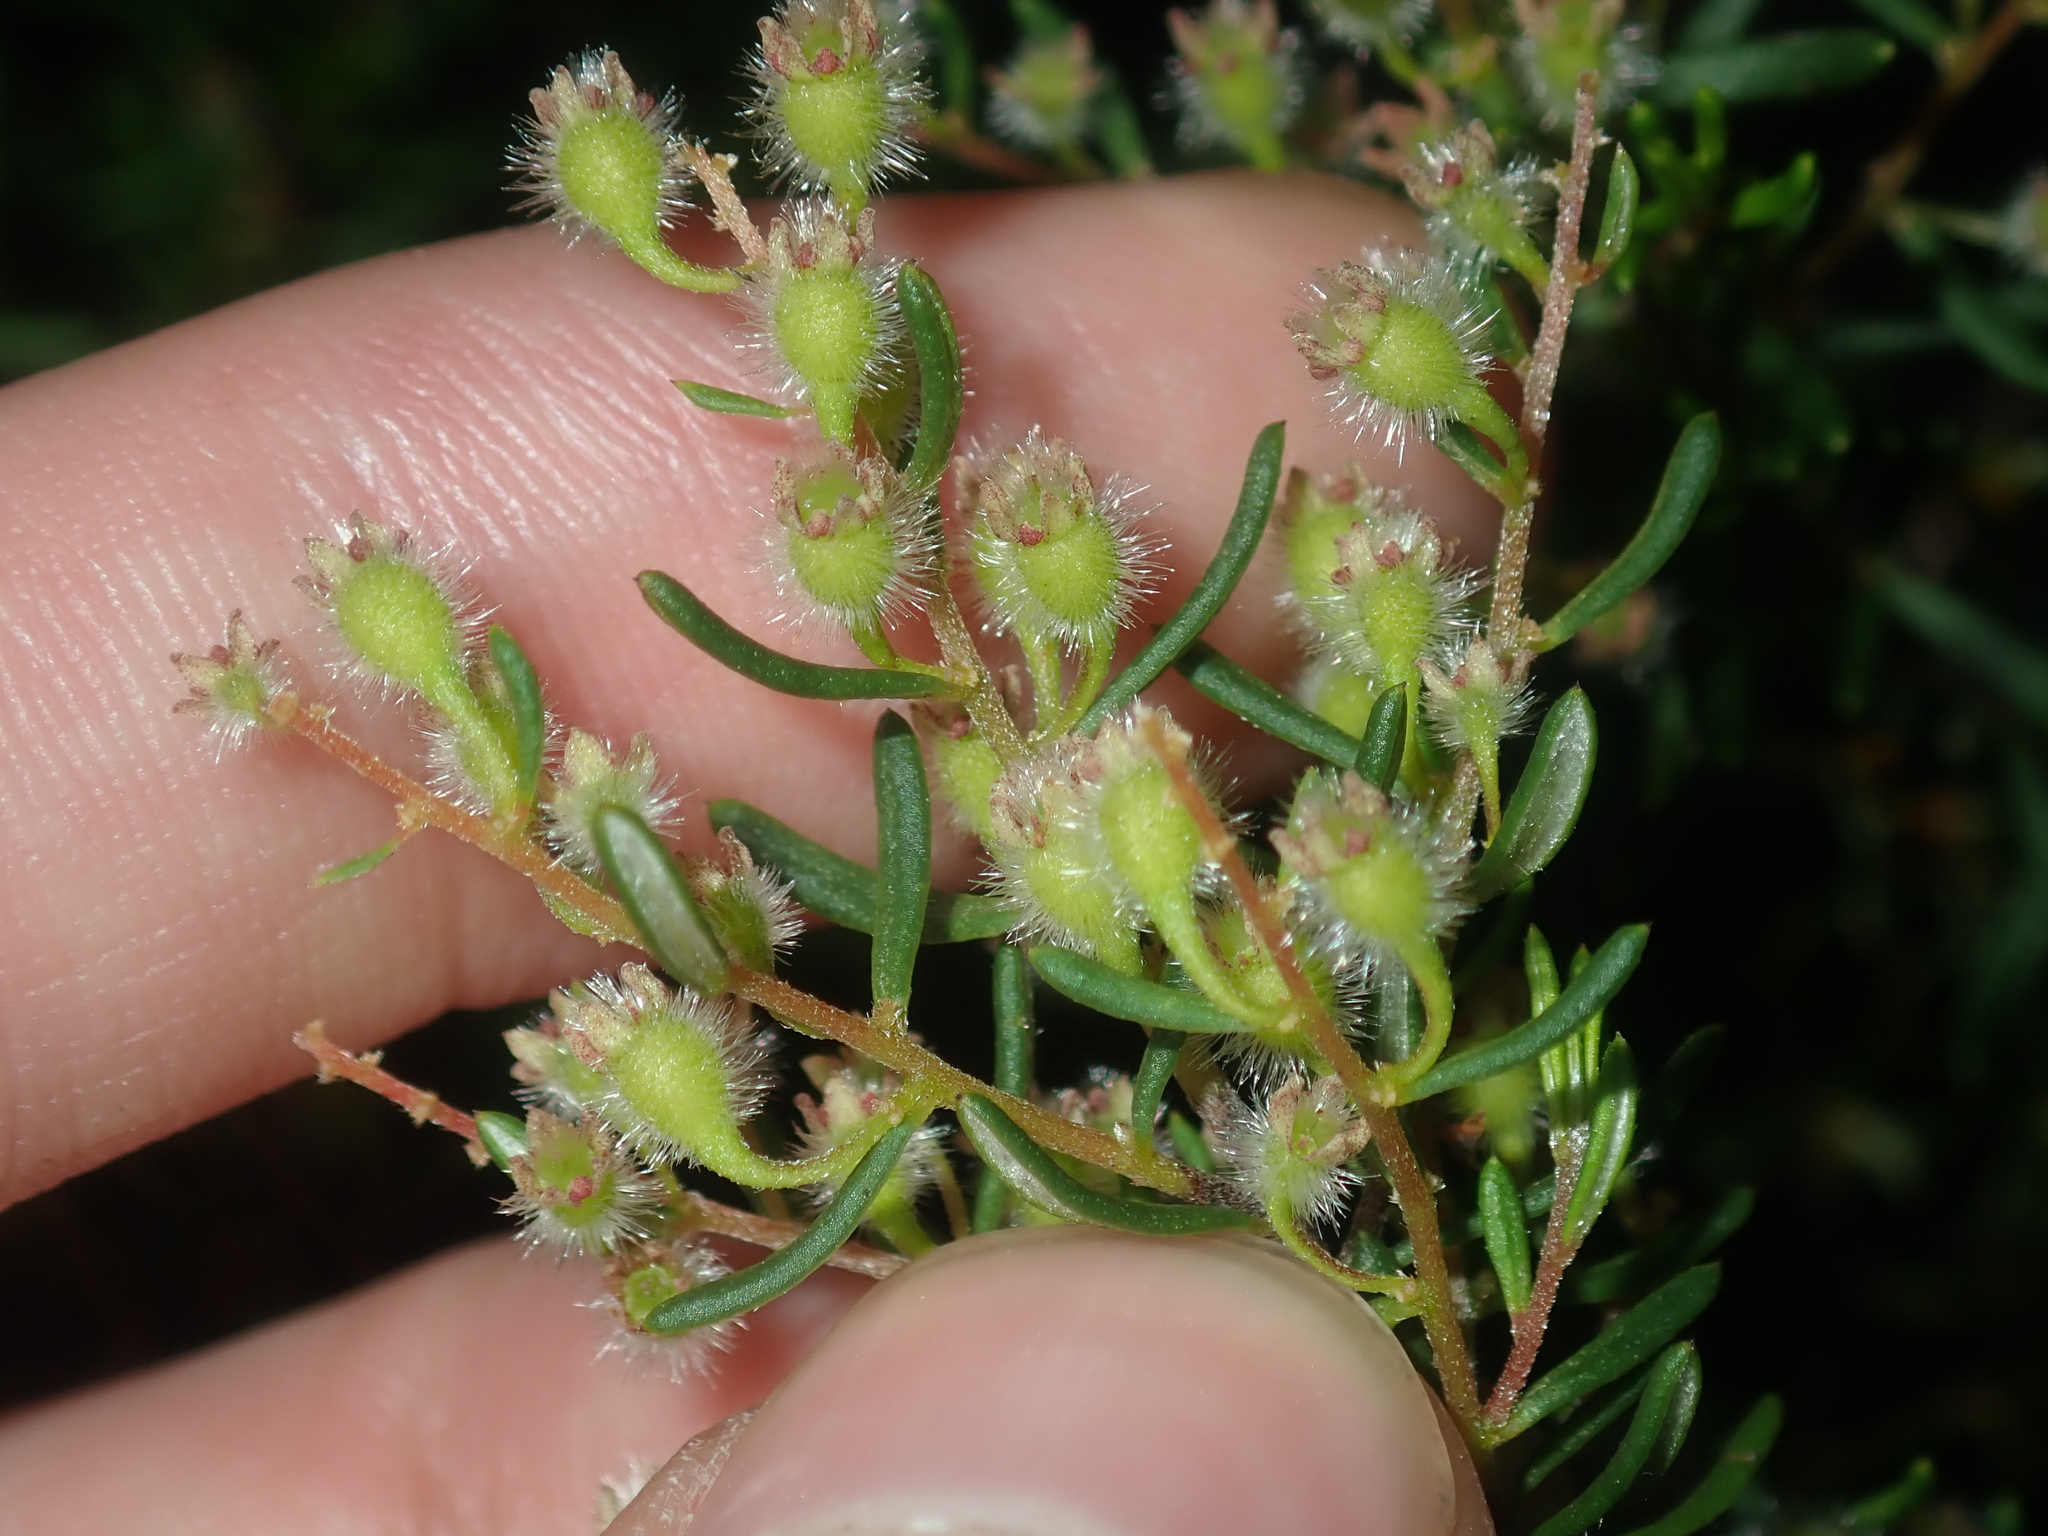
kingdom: Plantae
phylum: Tracheophyta
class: Magnoliopsida
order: Rosales
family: Rhamnaceae
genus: Trymalium
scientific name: Trymalium angustifolium
